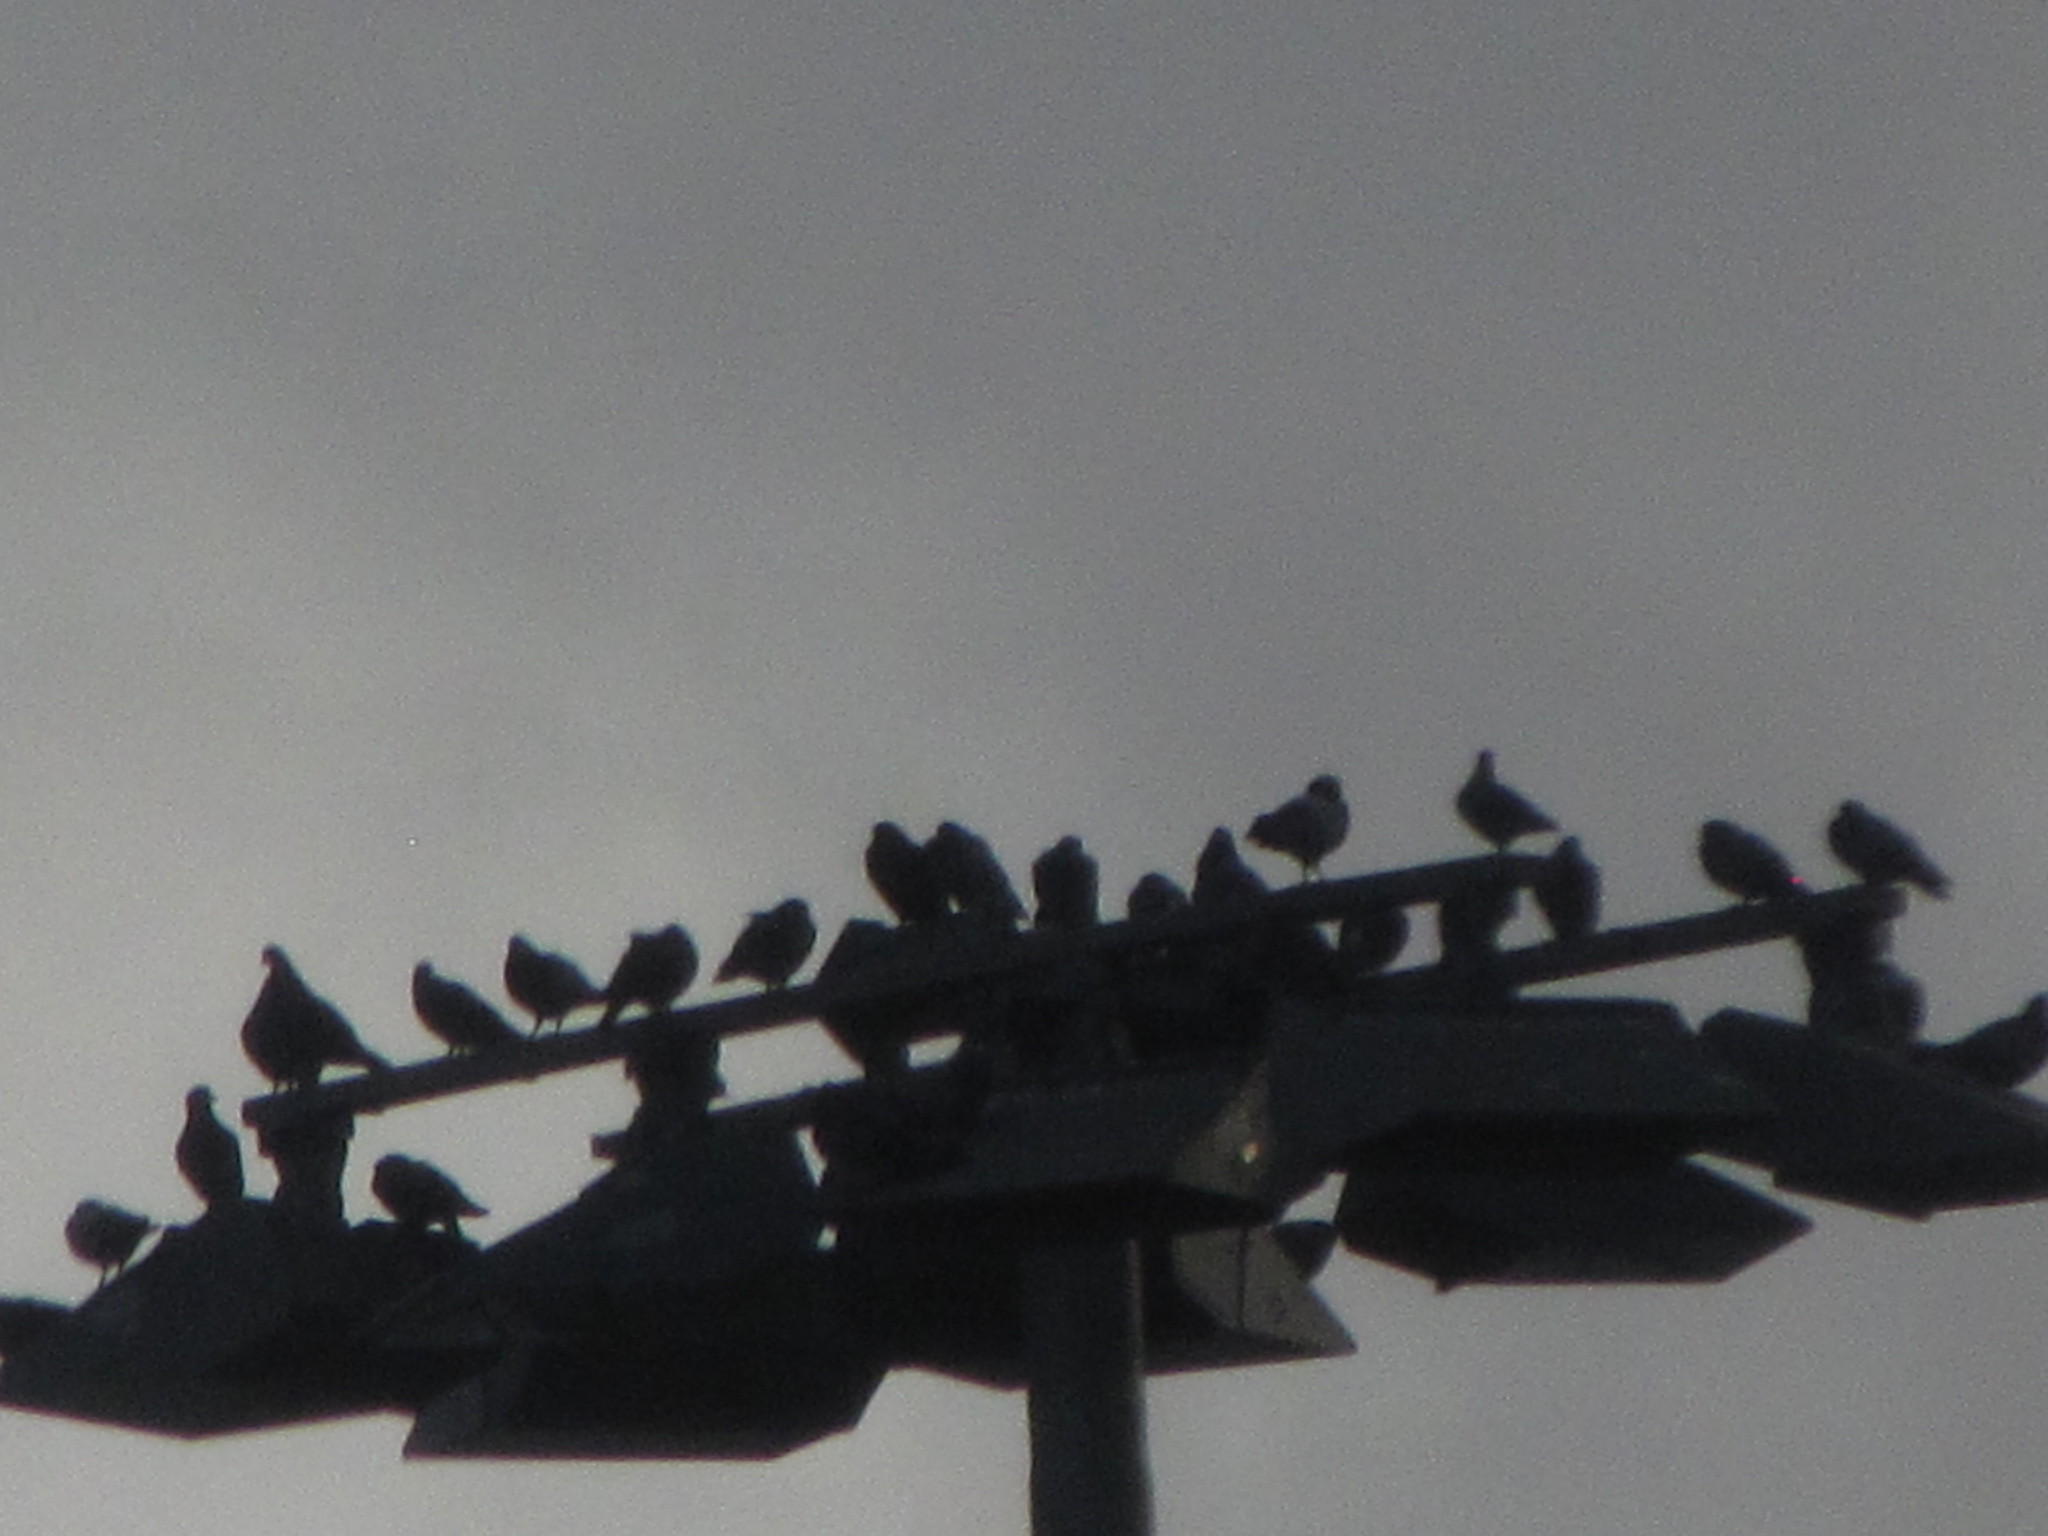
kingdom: Animalia
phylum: Chordata
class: Aves
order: Columbiformes
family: Columbidae
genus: Columba
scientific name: Columba livia
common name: Rock pigeon
